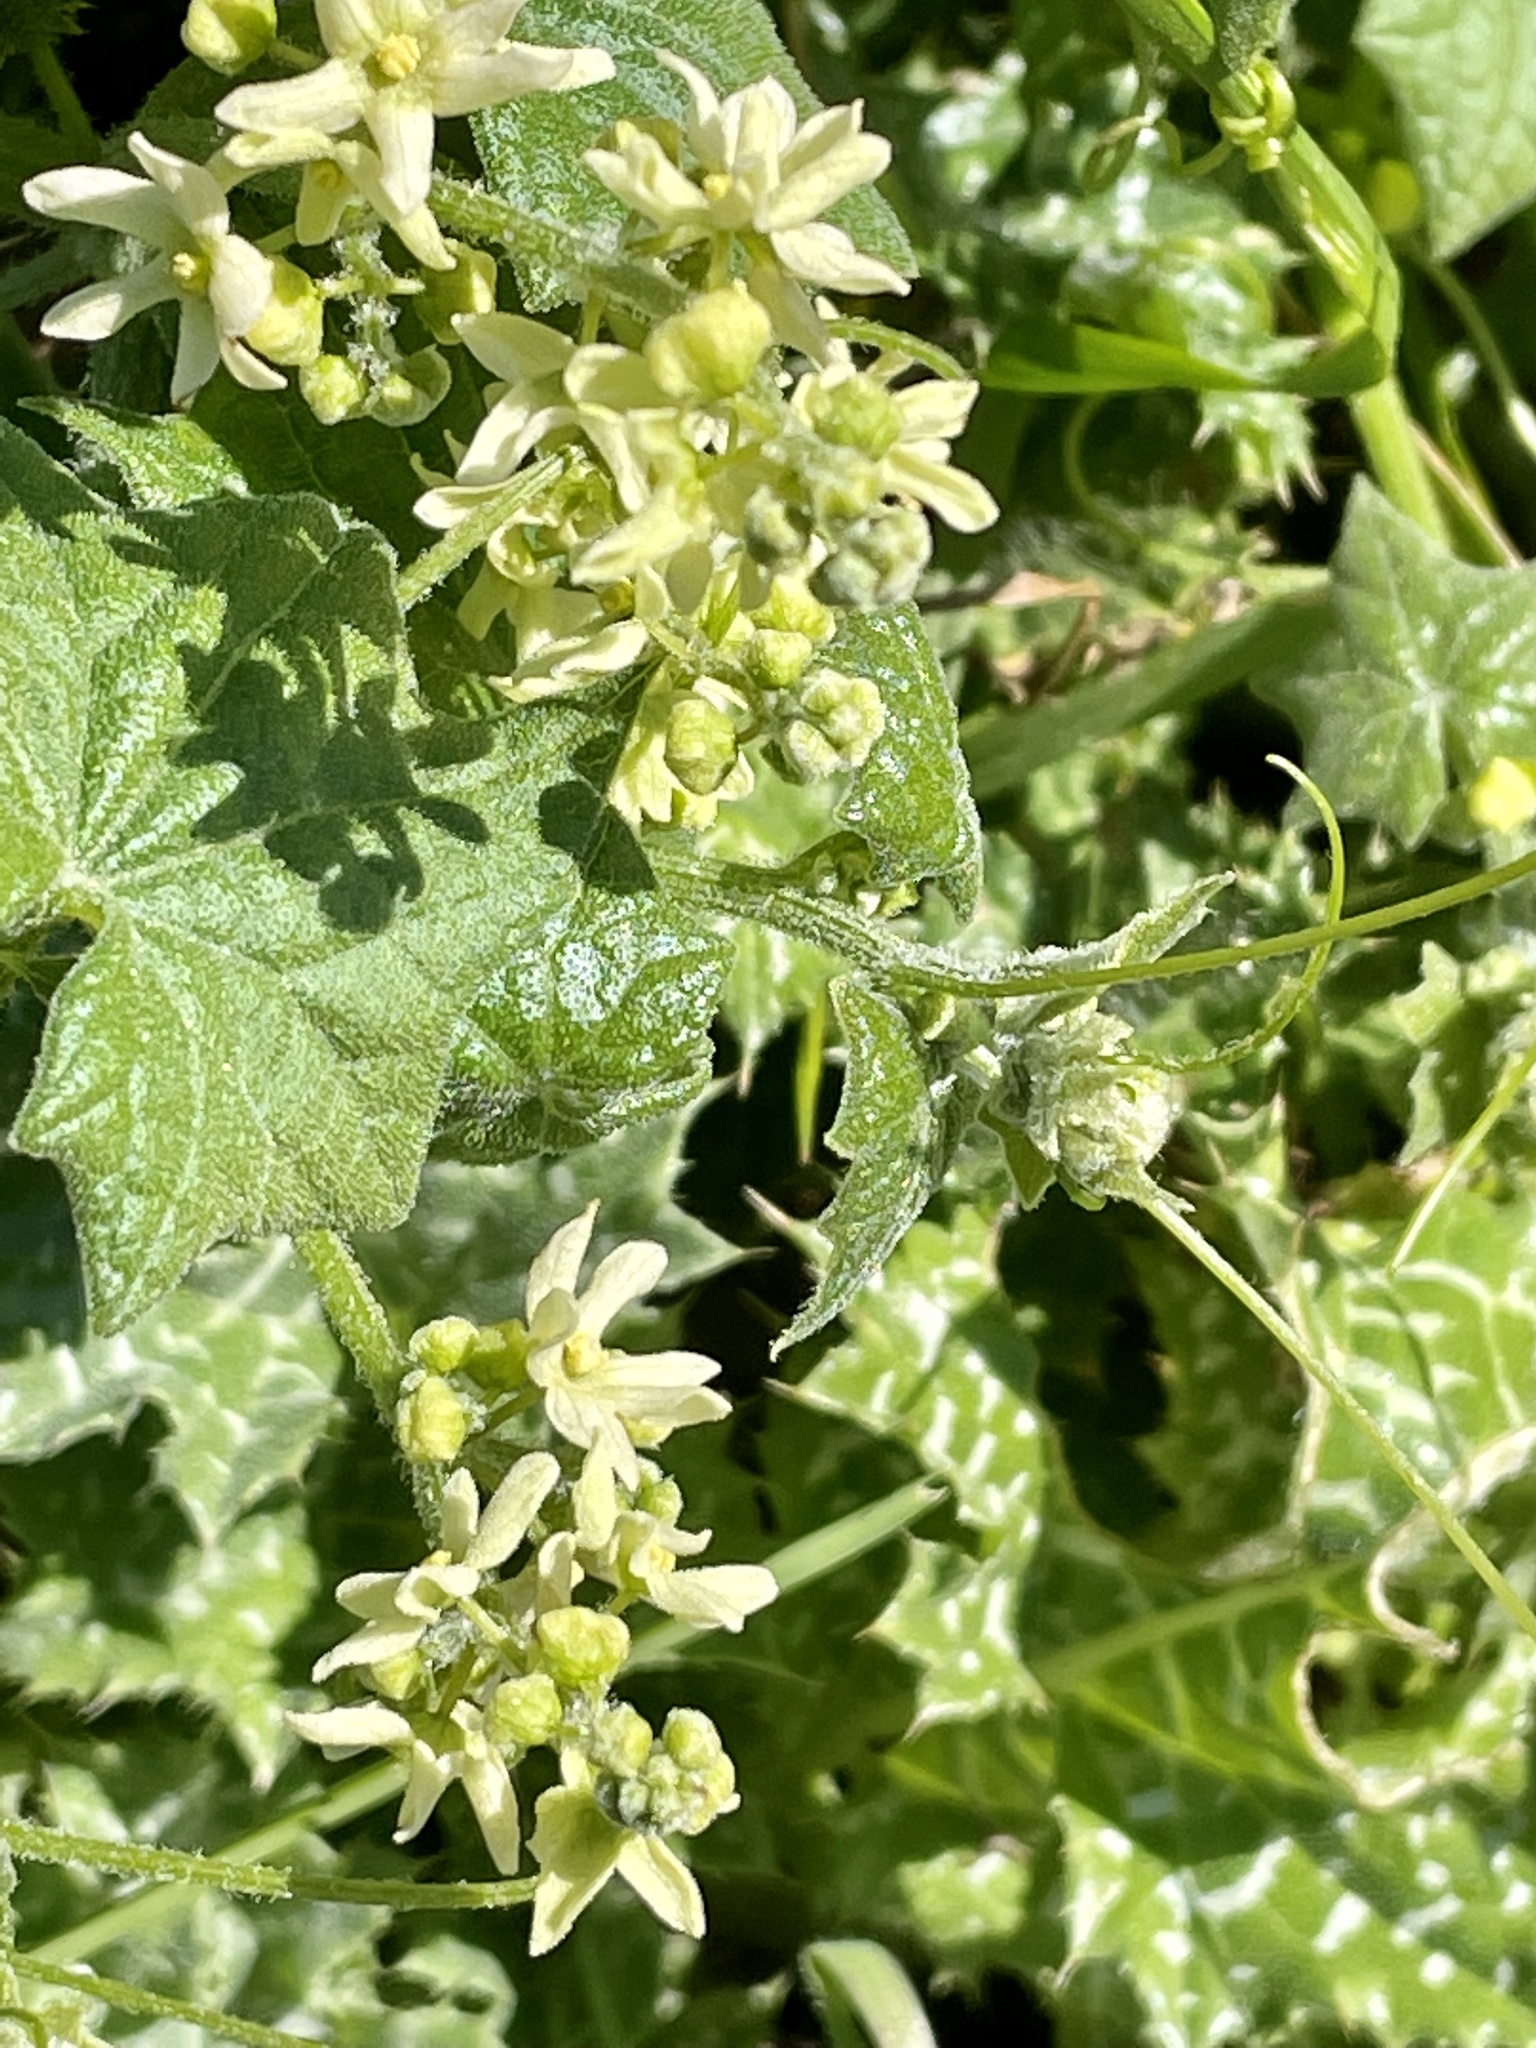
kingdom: Plantae
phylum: Tracheophyta
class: Magnoliopsida
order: Cucurbitales
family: Cucurbitaceae
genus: Marah
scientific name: Marah fabacea
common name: California manroot
